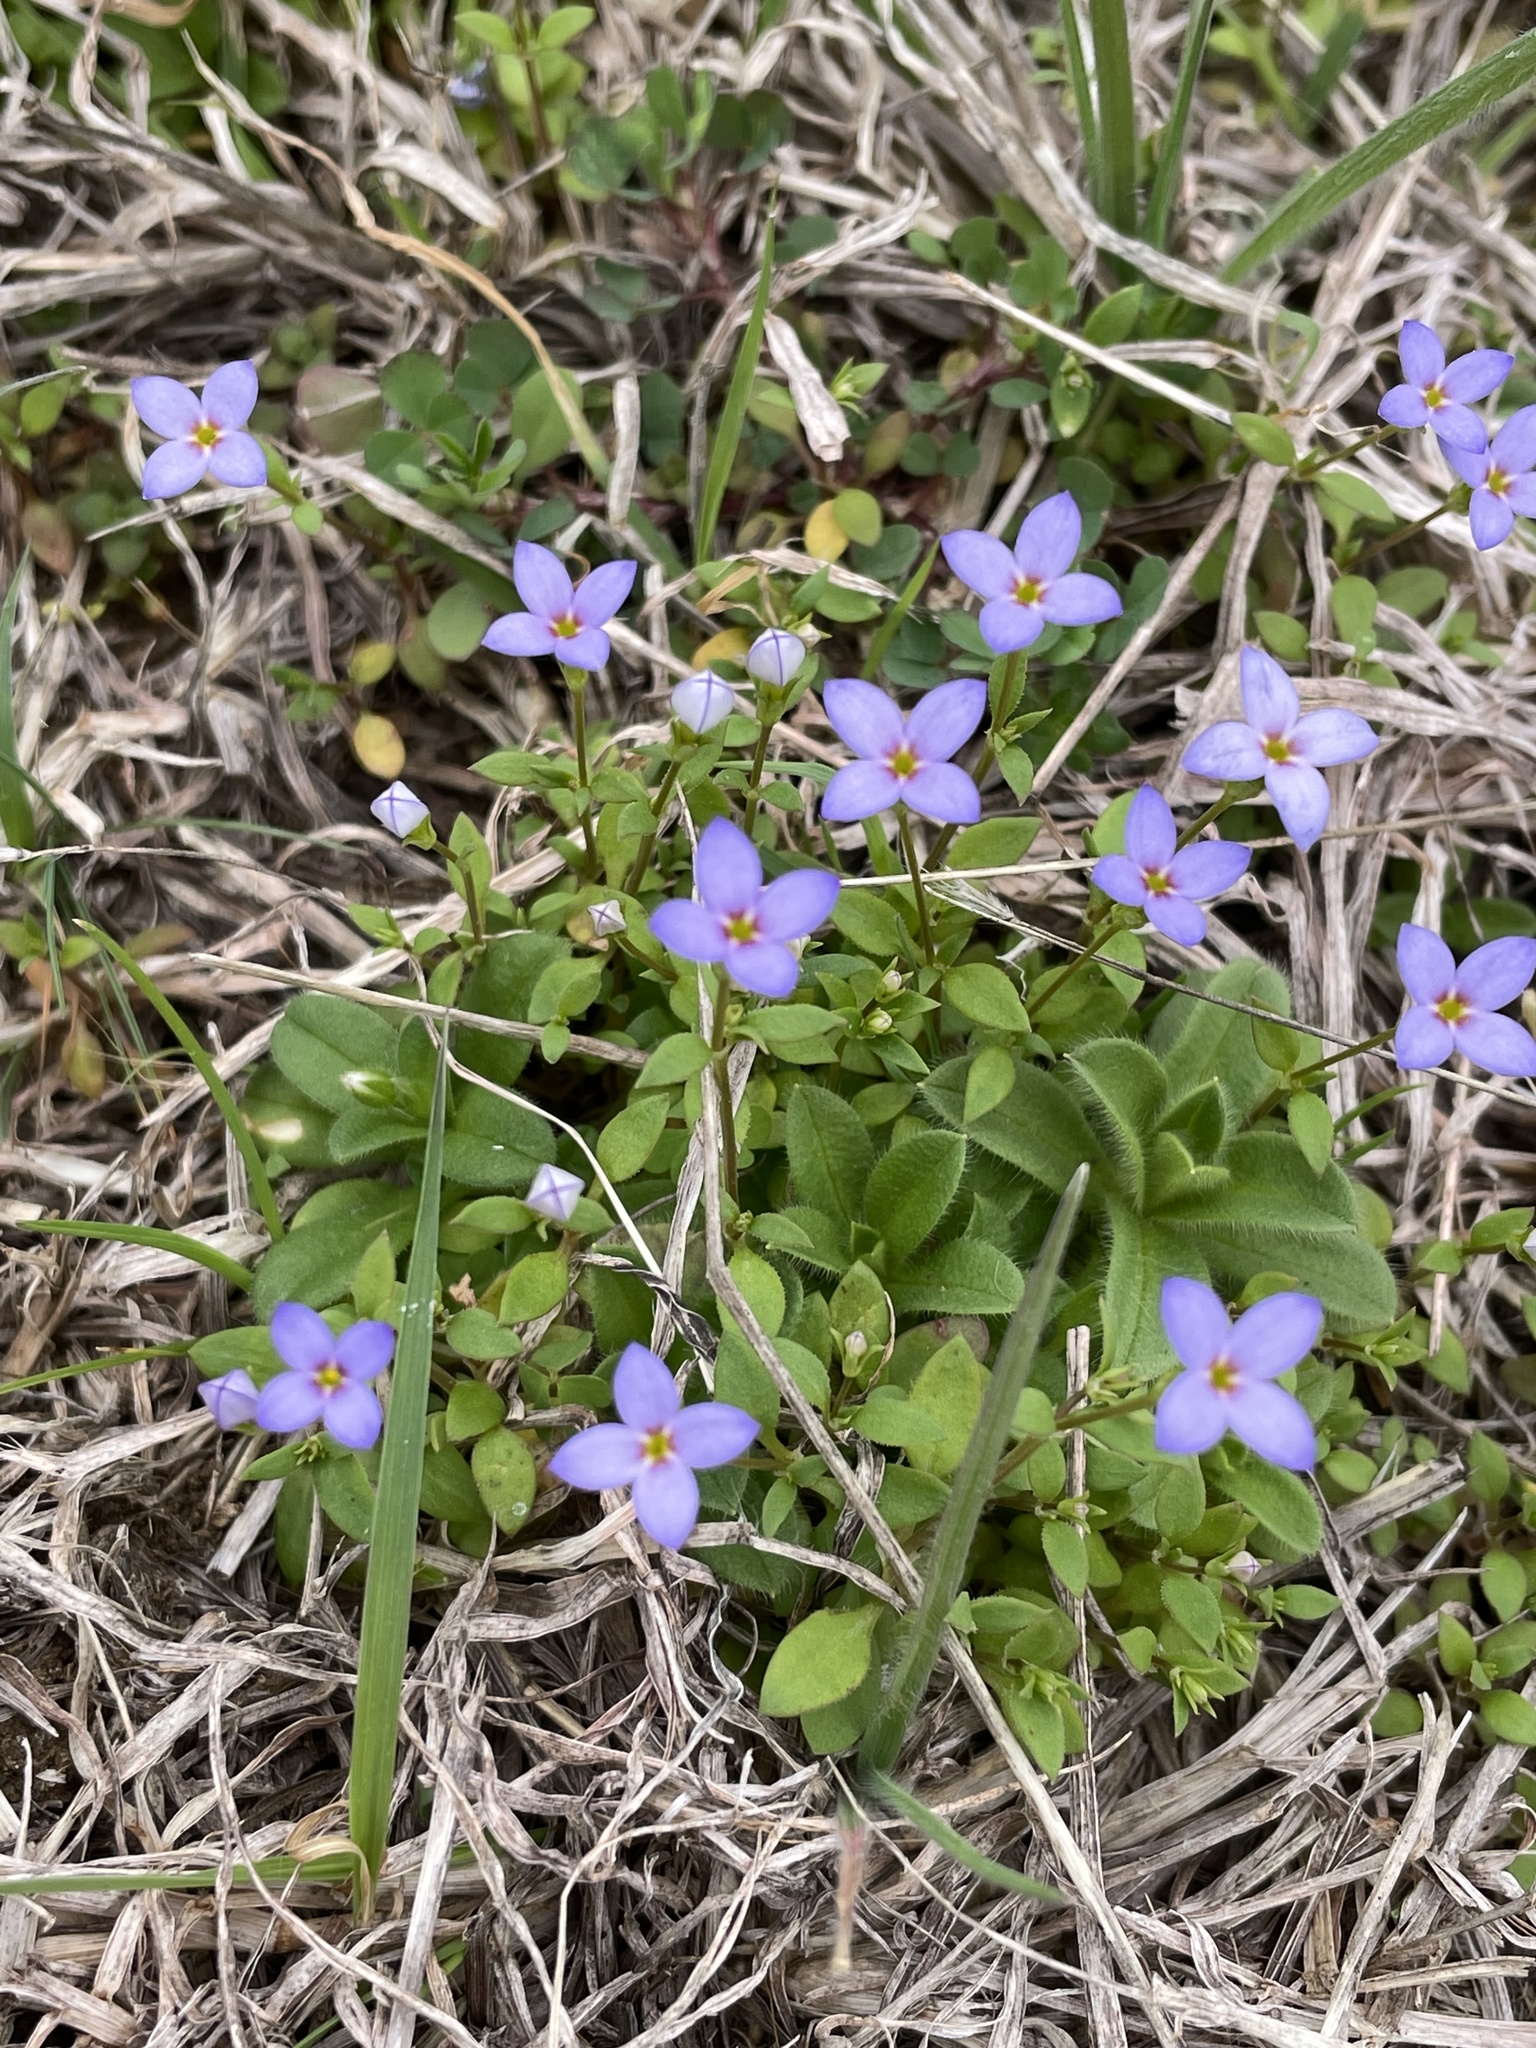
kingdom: Plantae
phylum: Tracheophyta
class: Magnoliopsida
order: Gentianales
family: Rubiaceae
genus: Houstonia
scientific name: Houstonia pusilla
